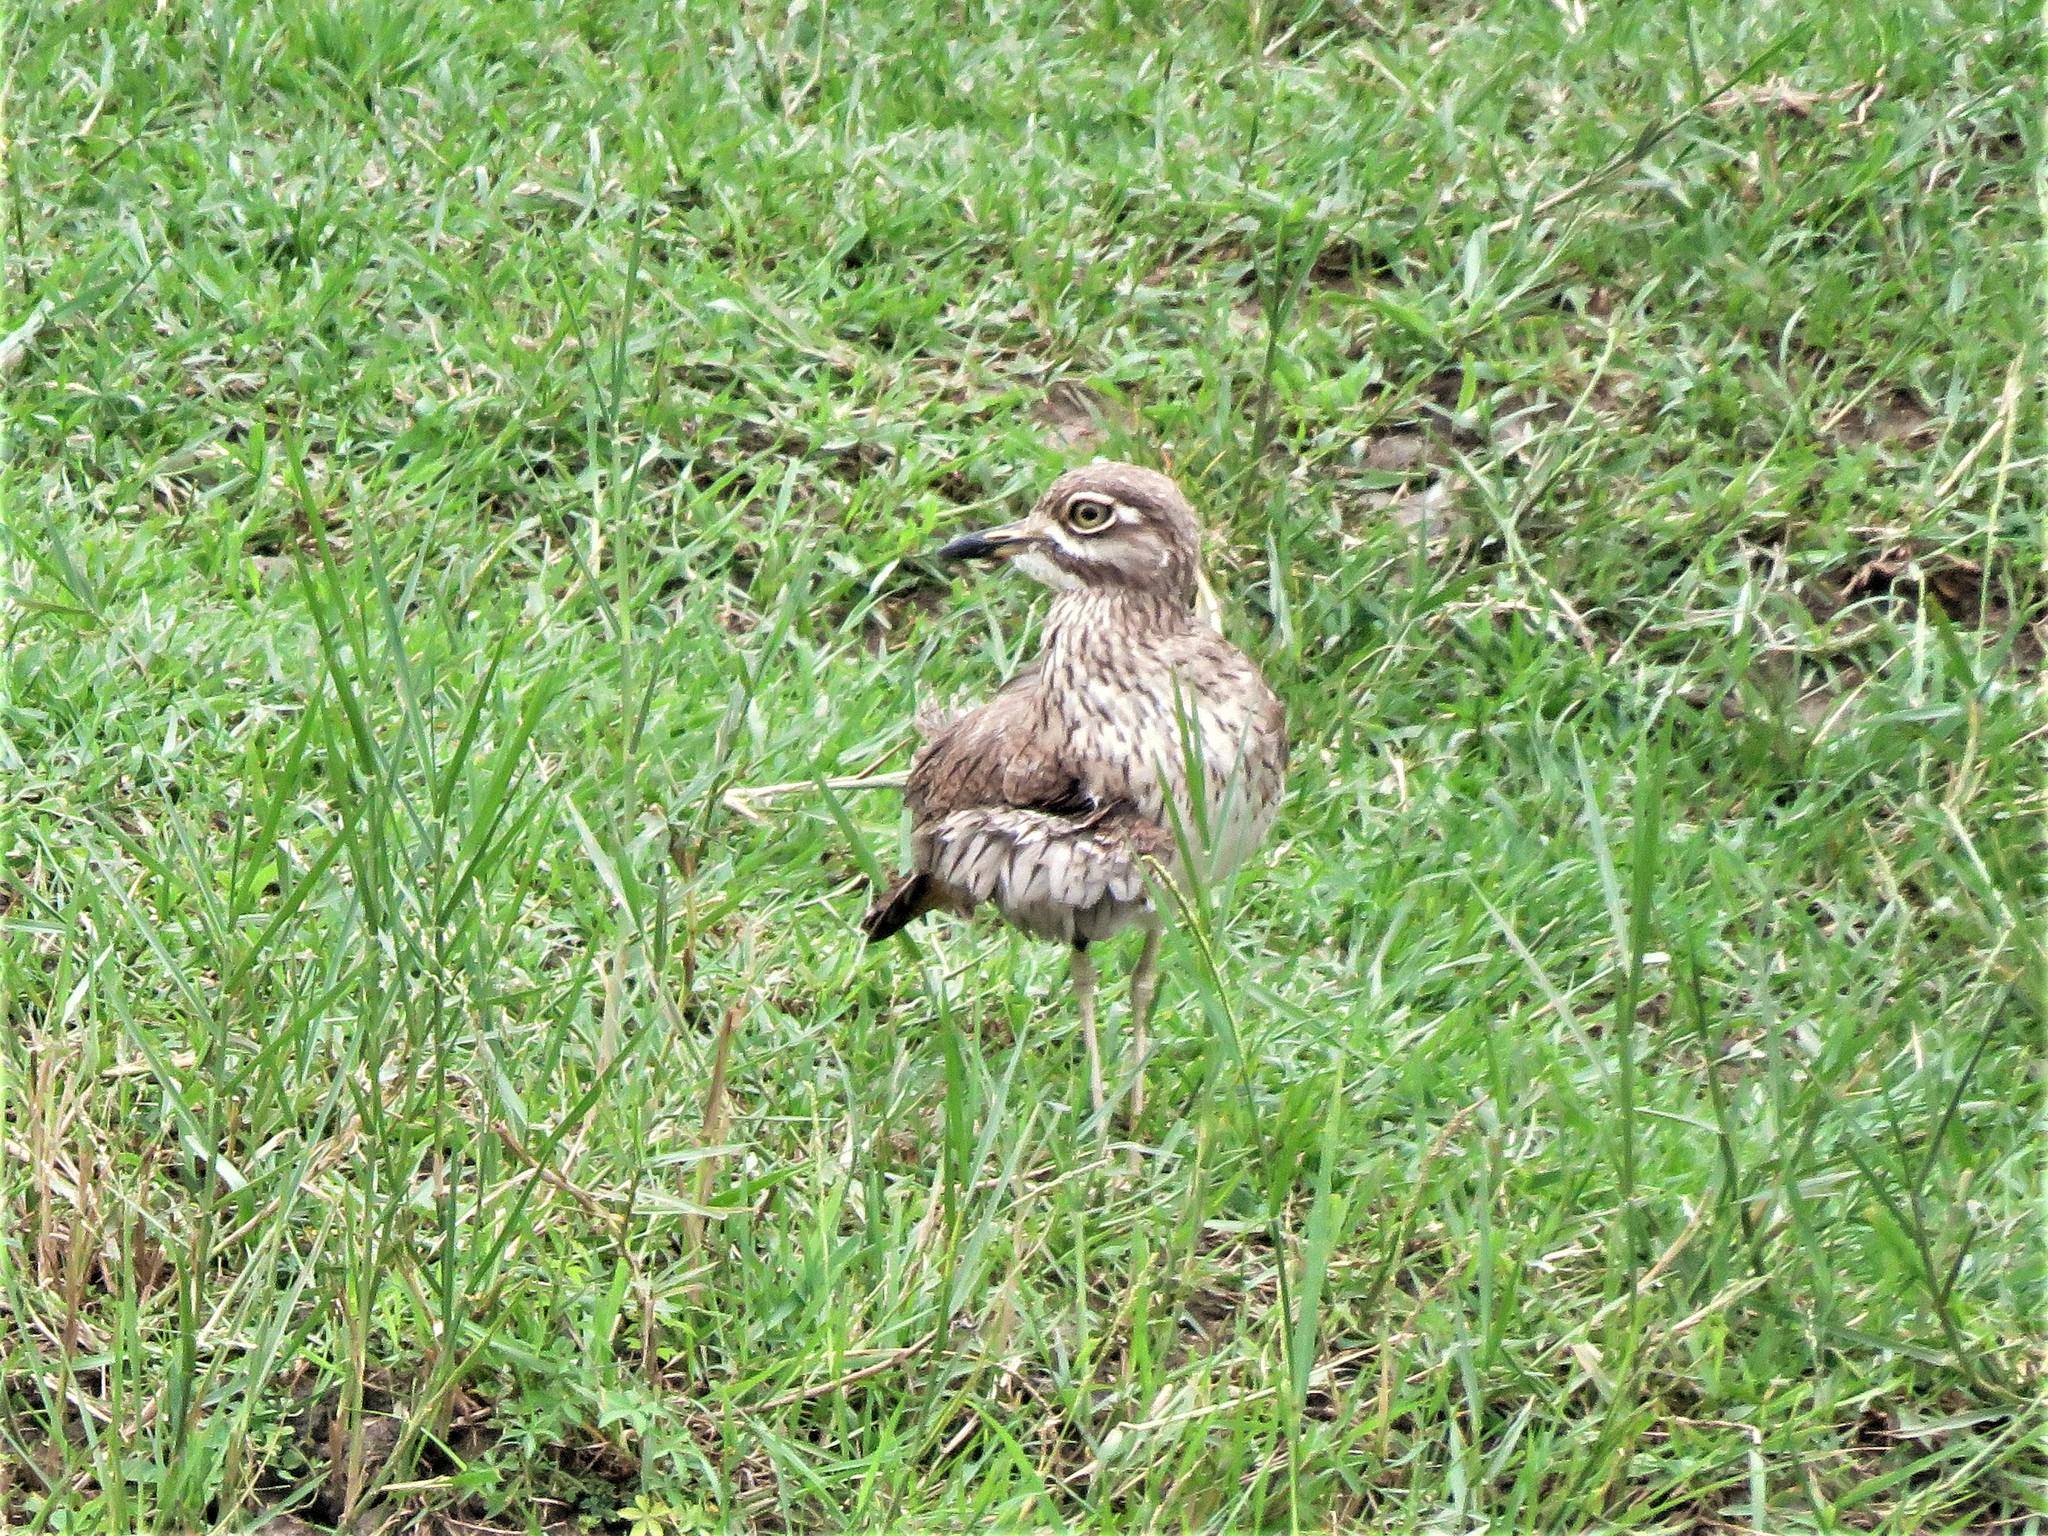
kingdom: Animalia
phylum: Chordata
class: Aves
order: Charadriiformes
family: Burhinidae
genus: Burhinus
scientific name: Burhinus vermiculatus
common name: Water thick-knee
